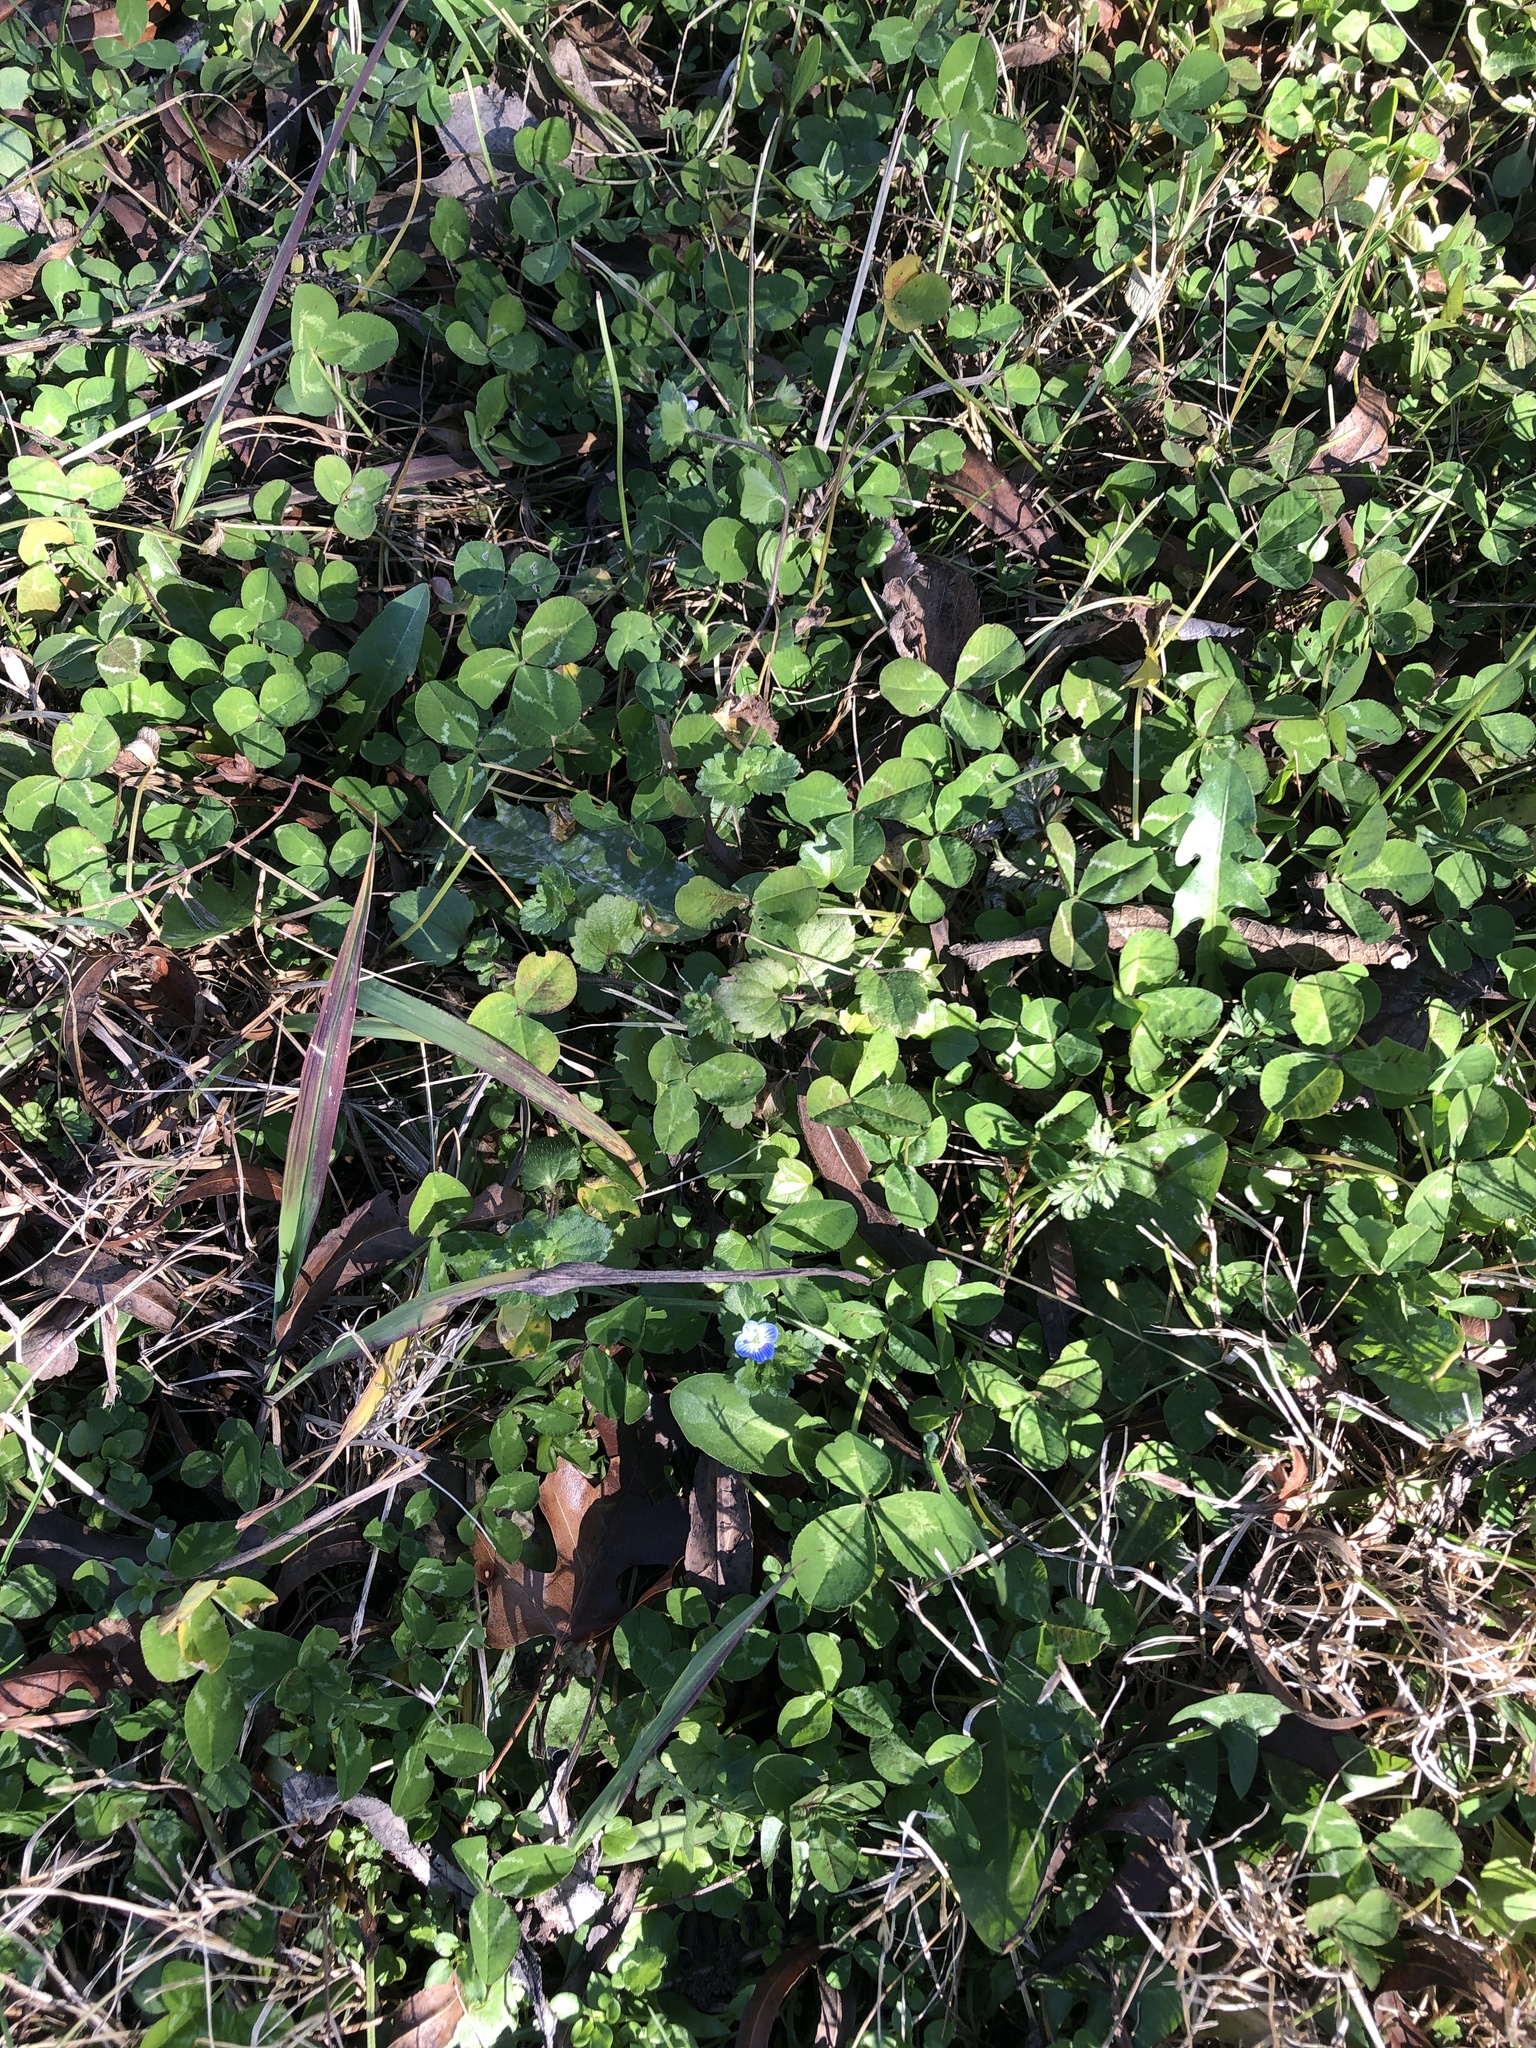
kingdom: Plantae
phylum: Tracheophyta
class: Magnoliopsida
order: Lamiales
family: Plantaginaceae
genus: Veronica
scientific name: Veronica persica
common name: Common field-speedwell
